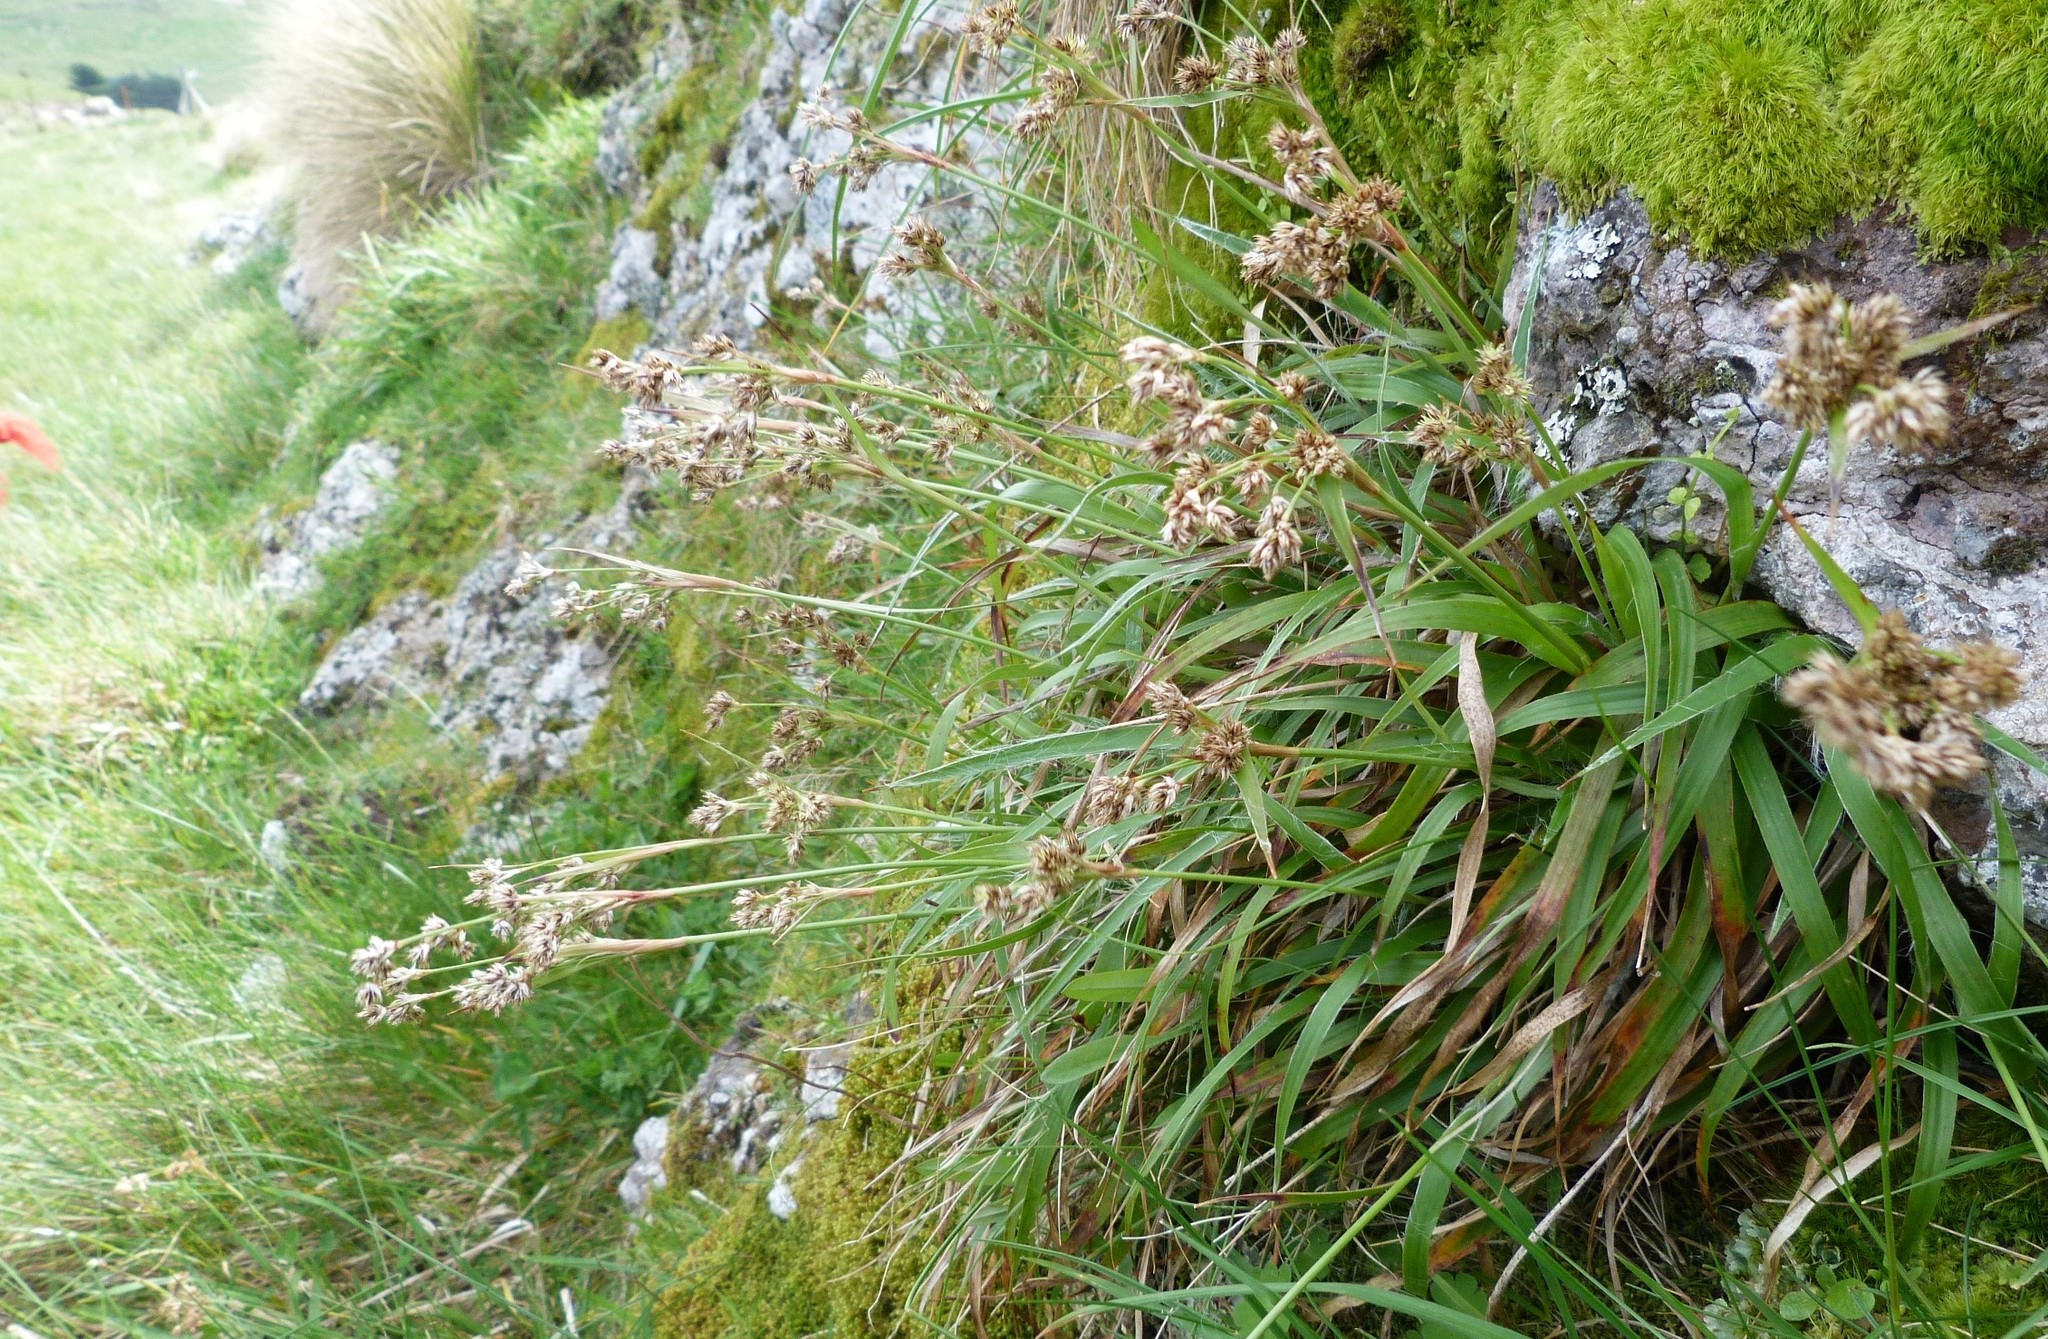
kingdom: Plantae
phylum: Tracheophyta
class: Liliopsida
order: Poales
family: Juncaceae
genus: Luzula
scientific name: Luzula banksiana
